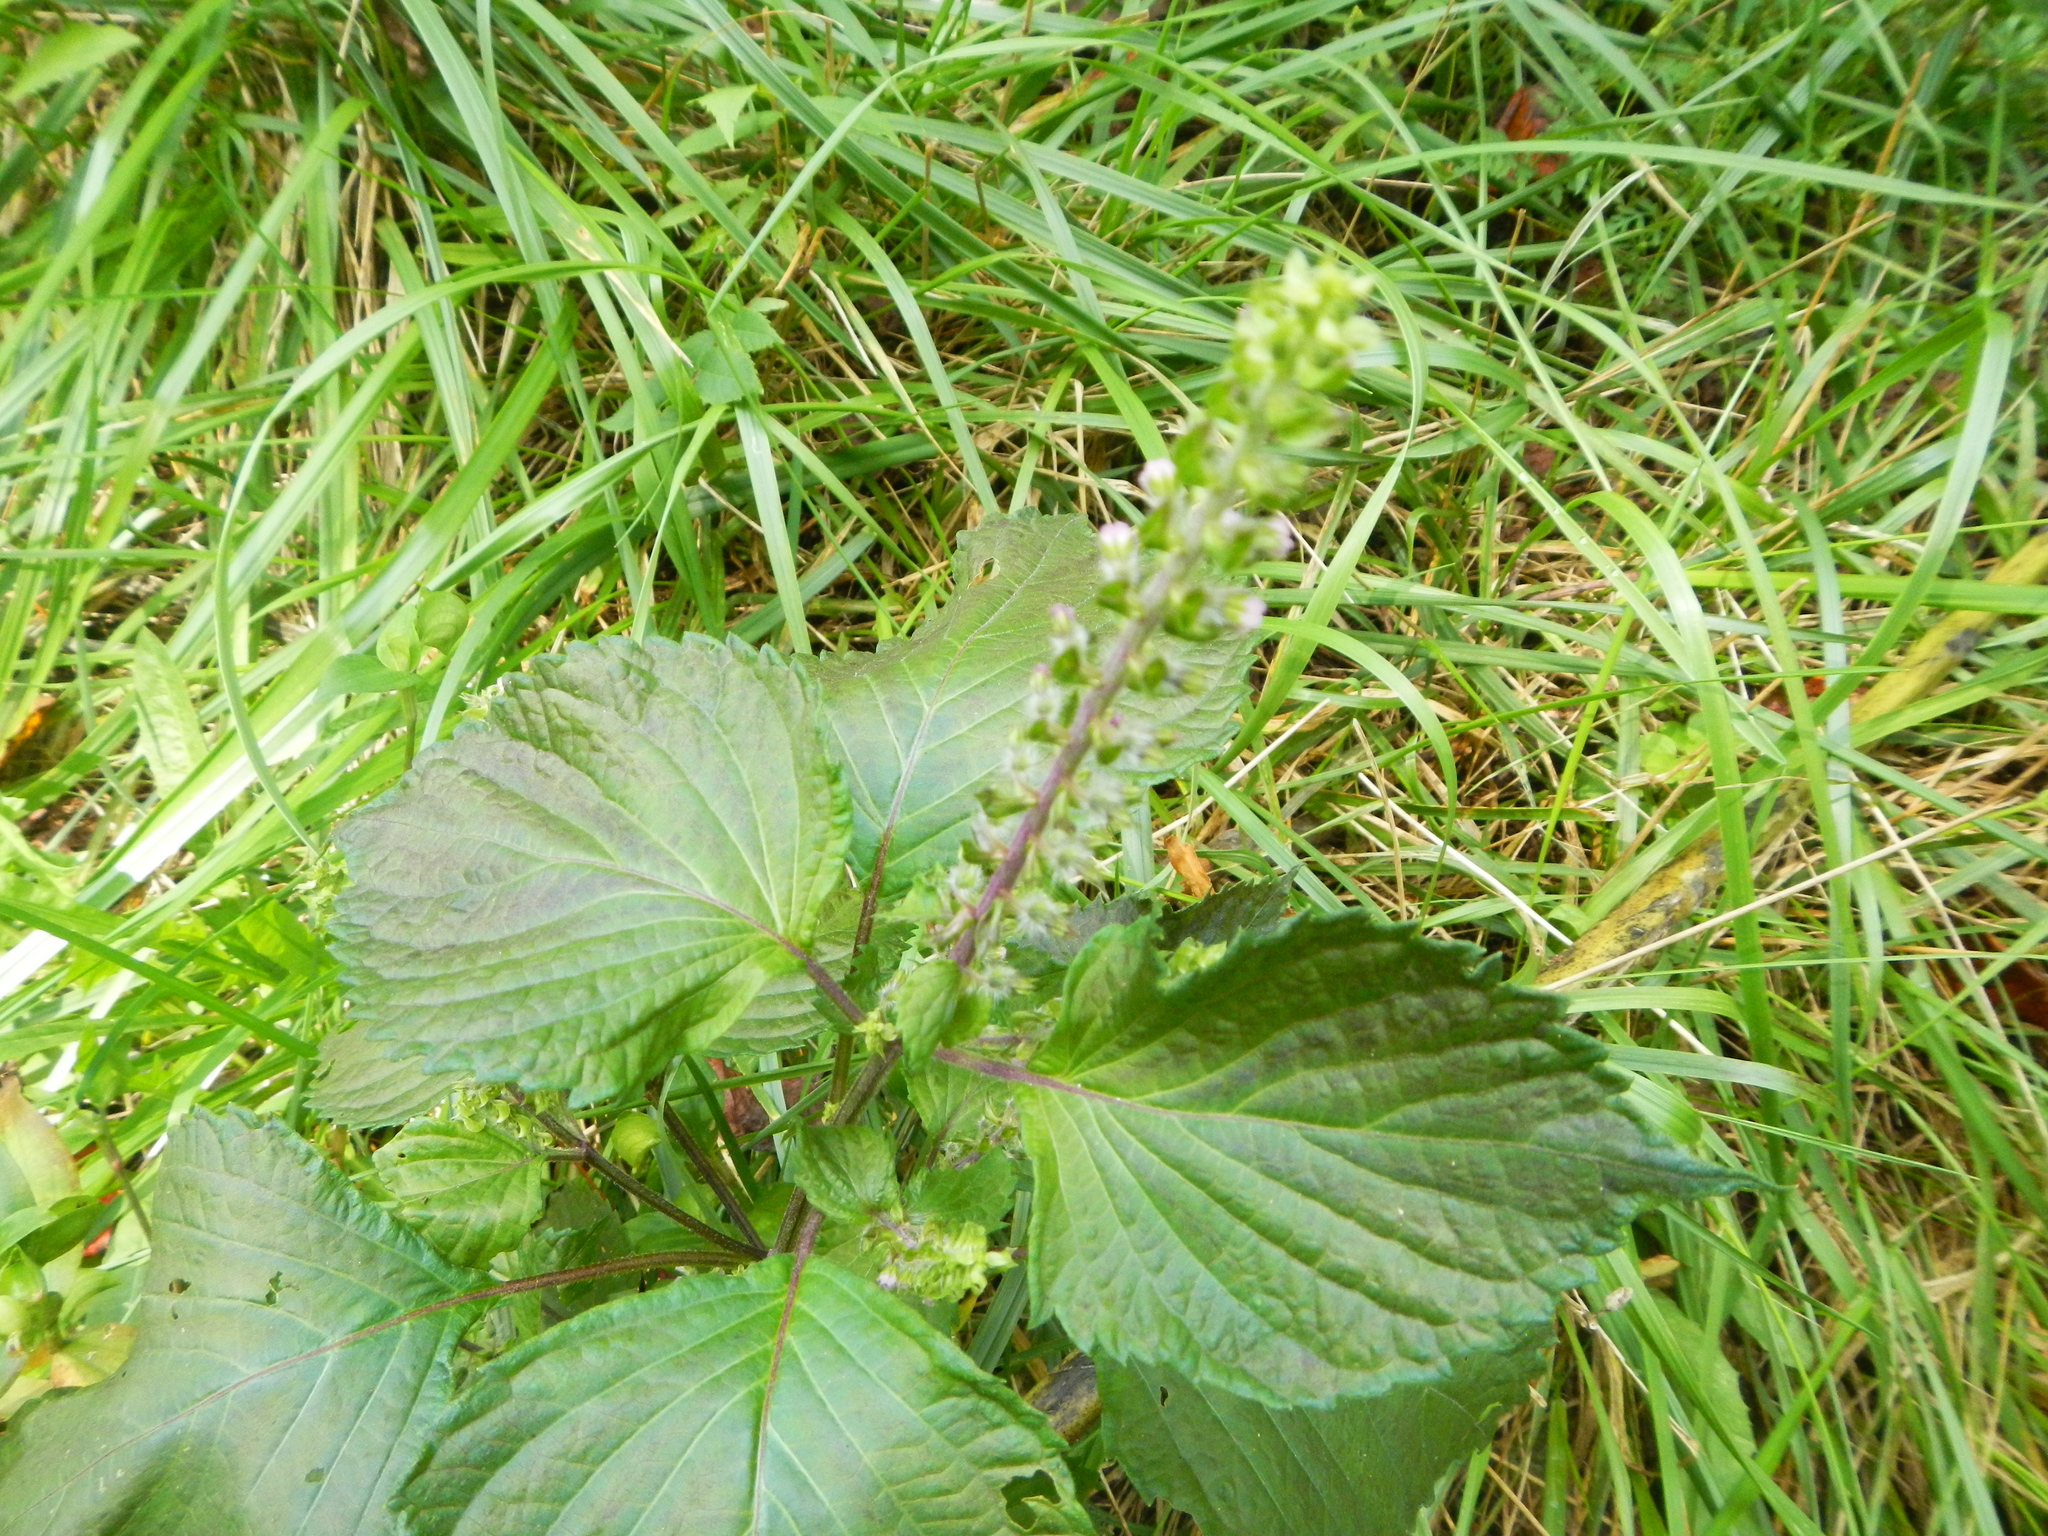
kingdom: Plantae
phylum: Tracheophyta
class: Magnoliopsida
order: Lamiales
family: Lamiaceae
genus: Perilla
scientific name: Perilla frutescens
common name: Perilla
